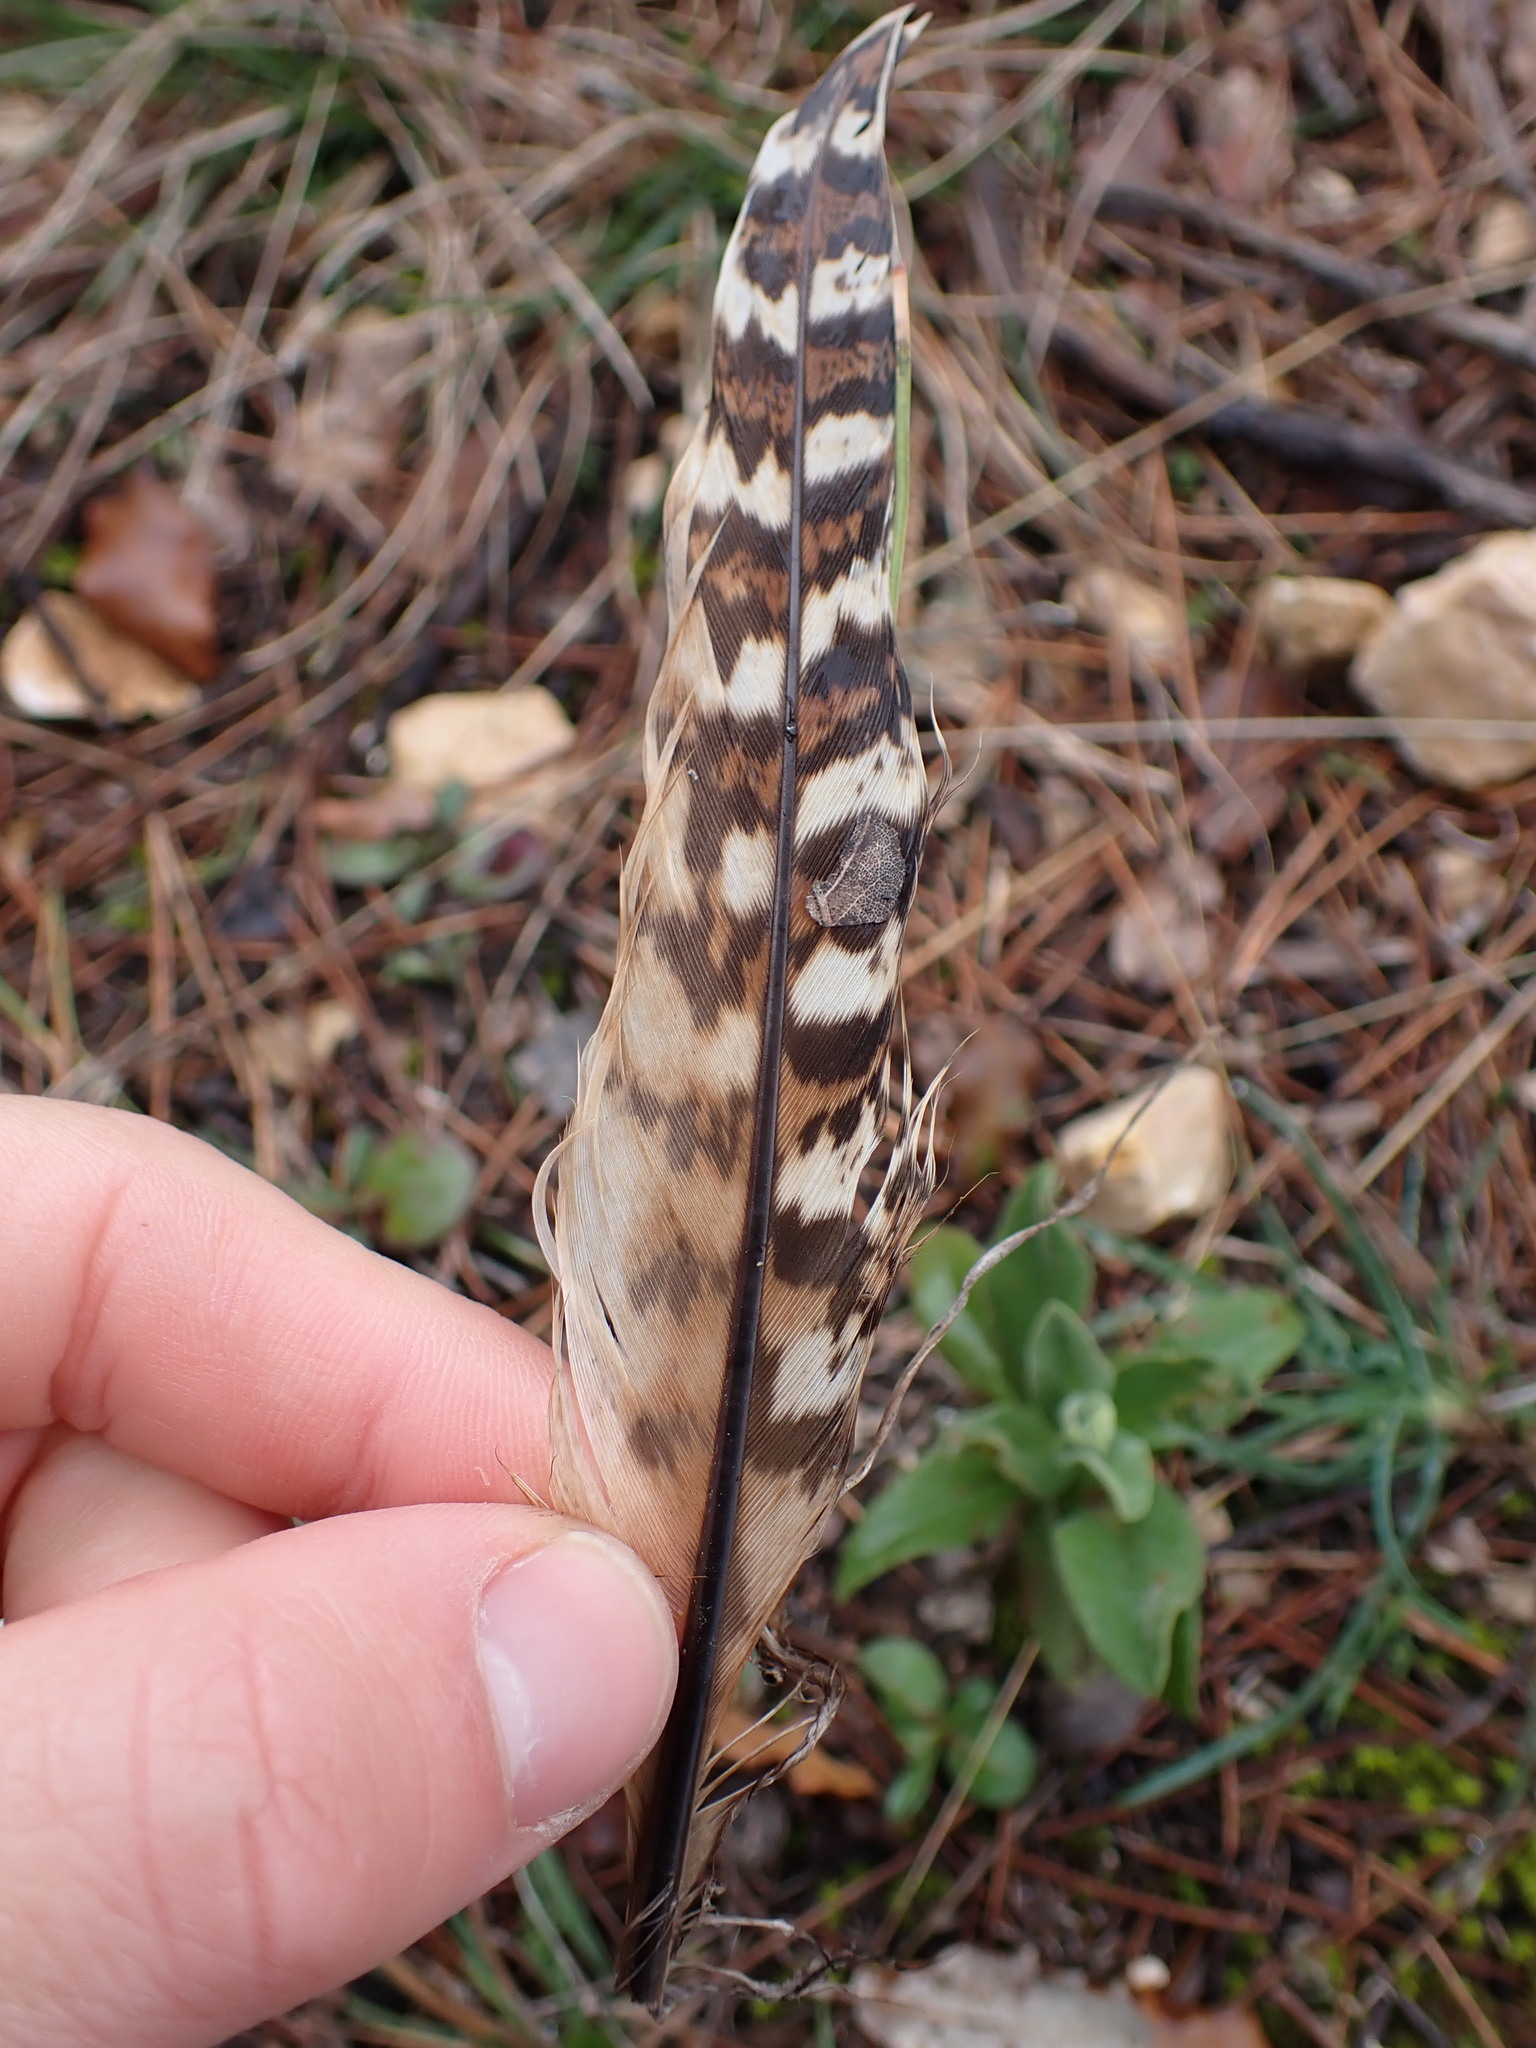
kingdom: Animalia
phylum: Chordata
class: Aves
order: Galliformes
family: Phasianidae
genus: Phasianus
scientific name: Phasianus colchicus
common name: Common pheasant
